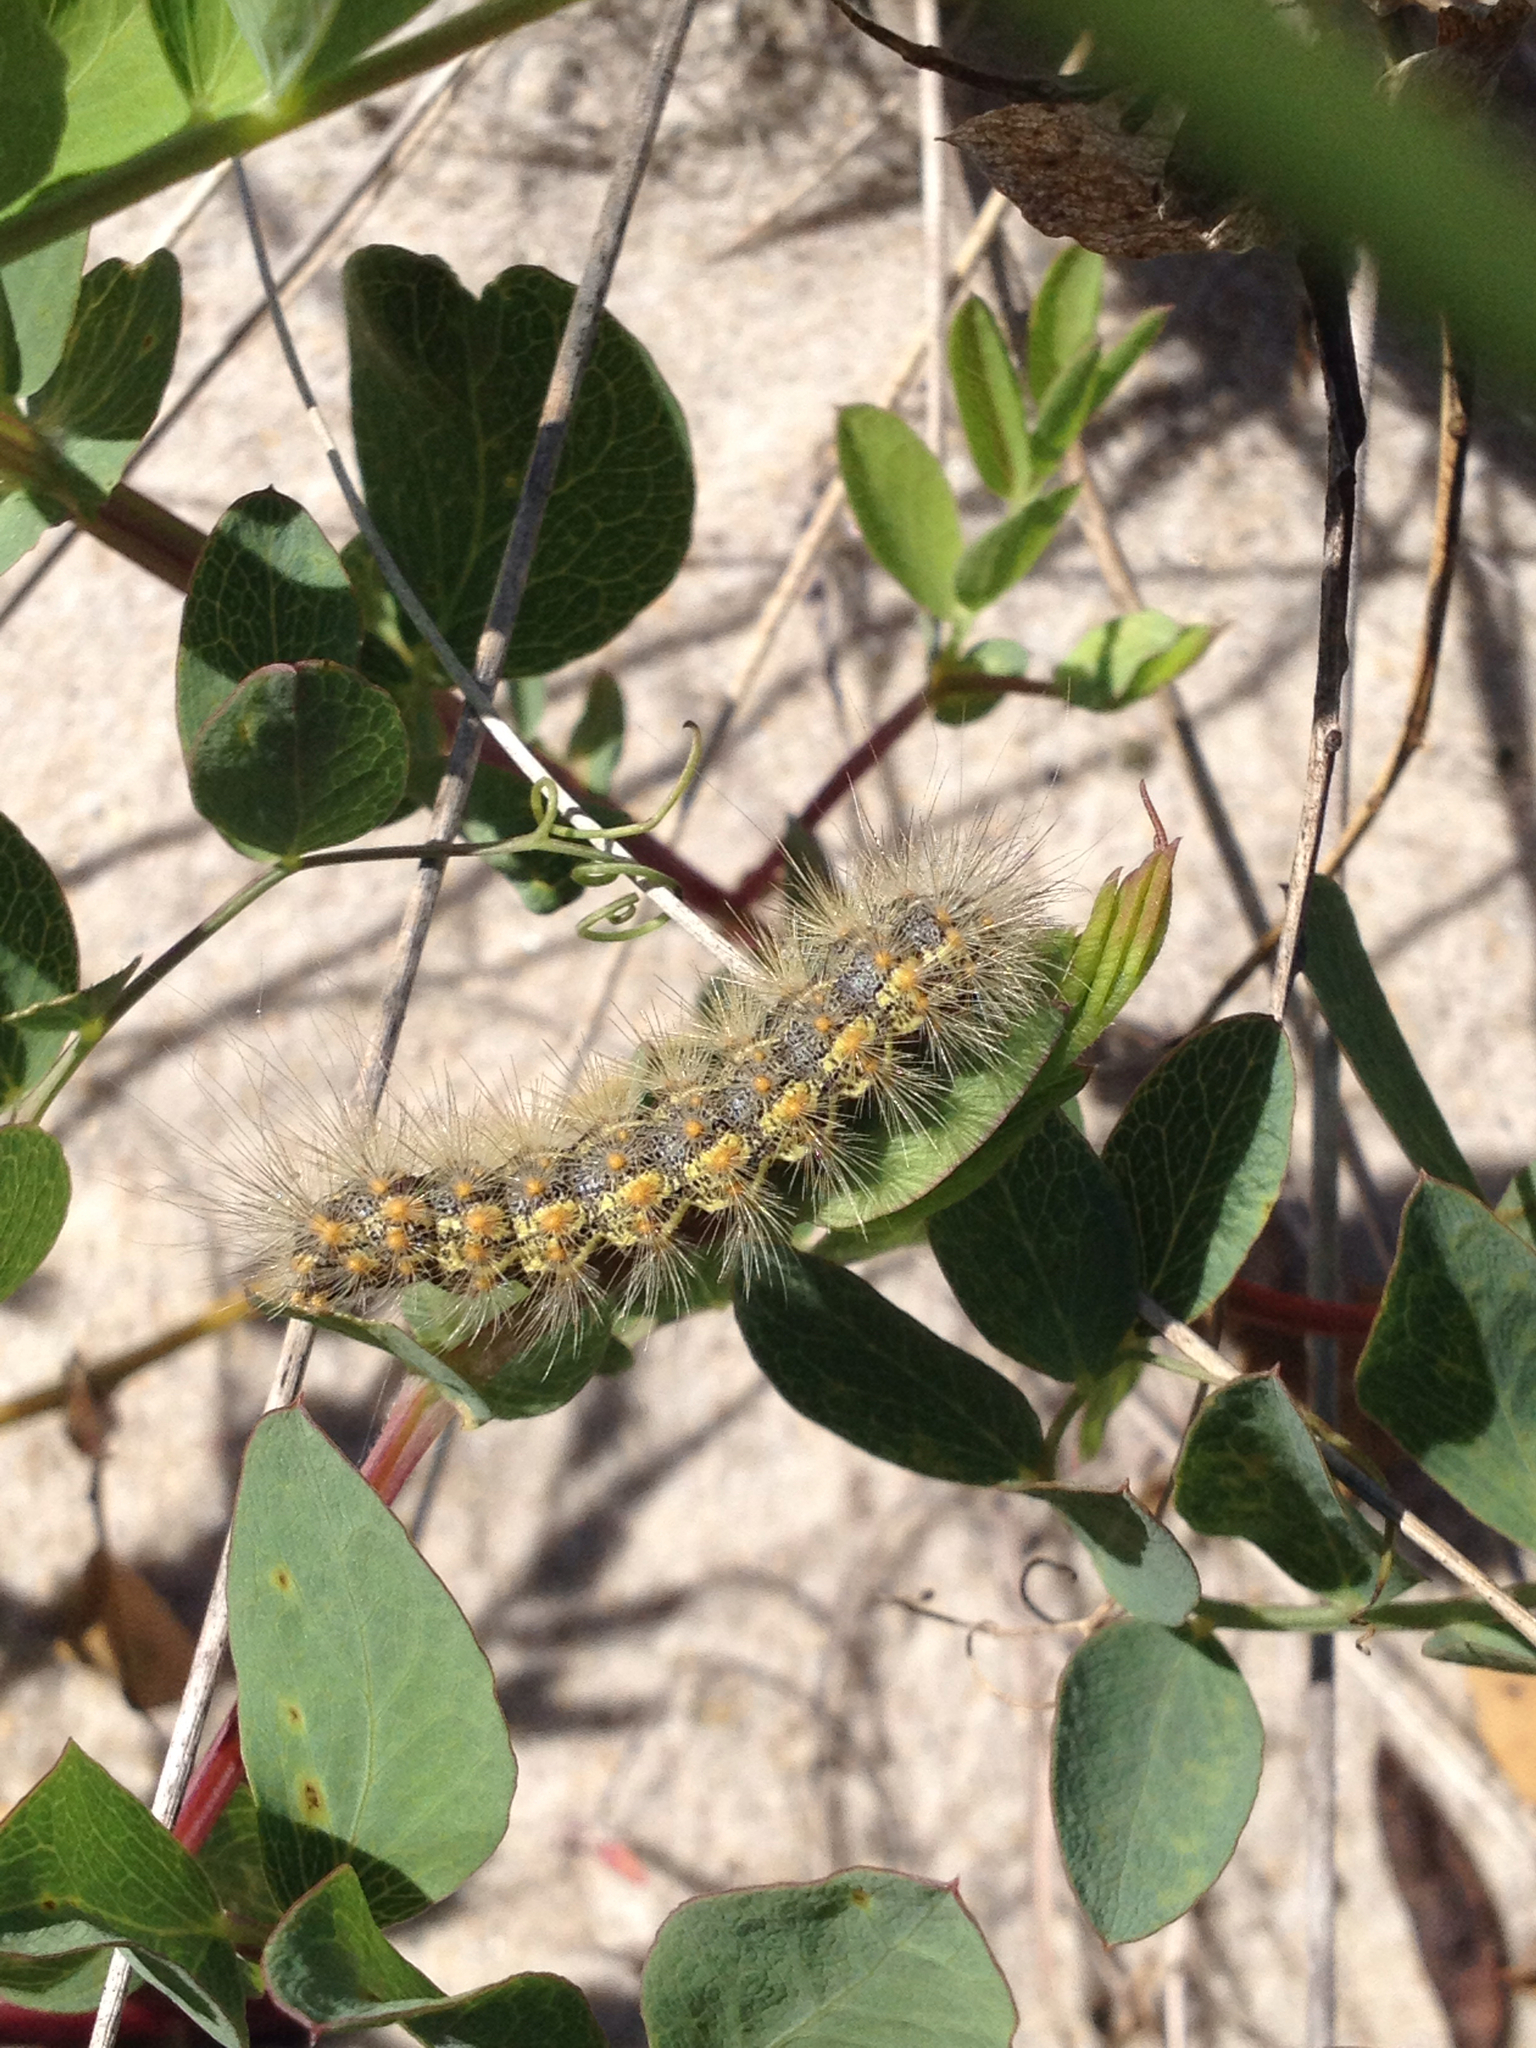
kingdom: Animalia
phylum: Arthropoda
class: Insecta
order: Lepidoptera
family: Erebidae
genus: Estigmene
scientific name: Estigmene acrea
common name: Salt marsh moth
